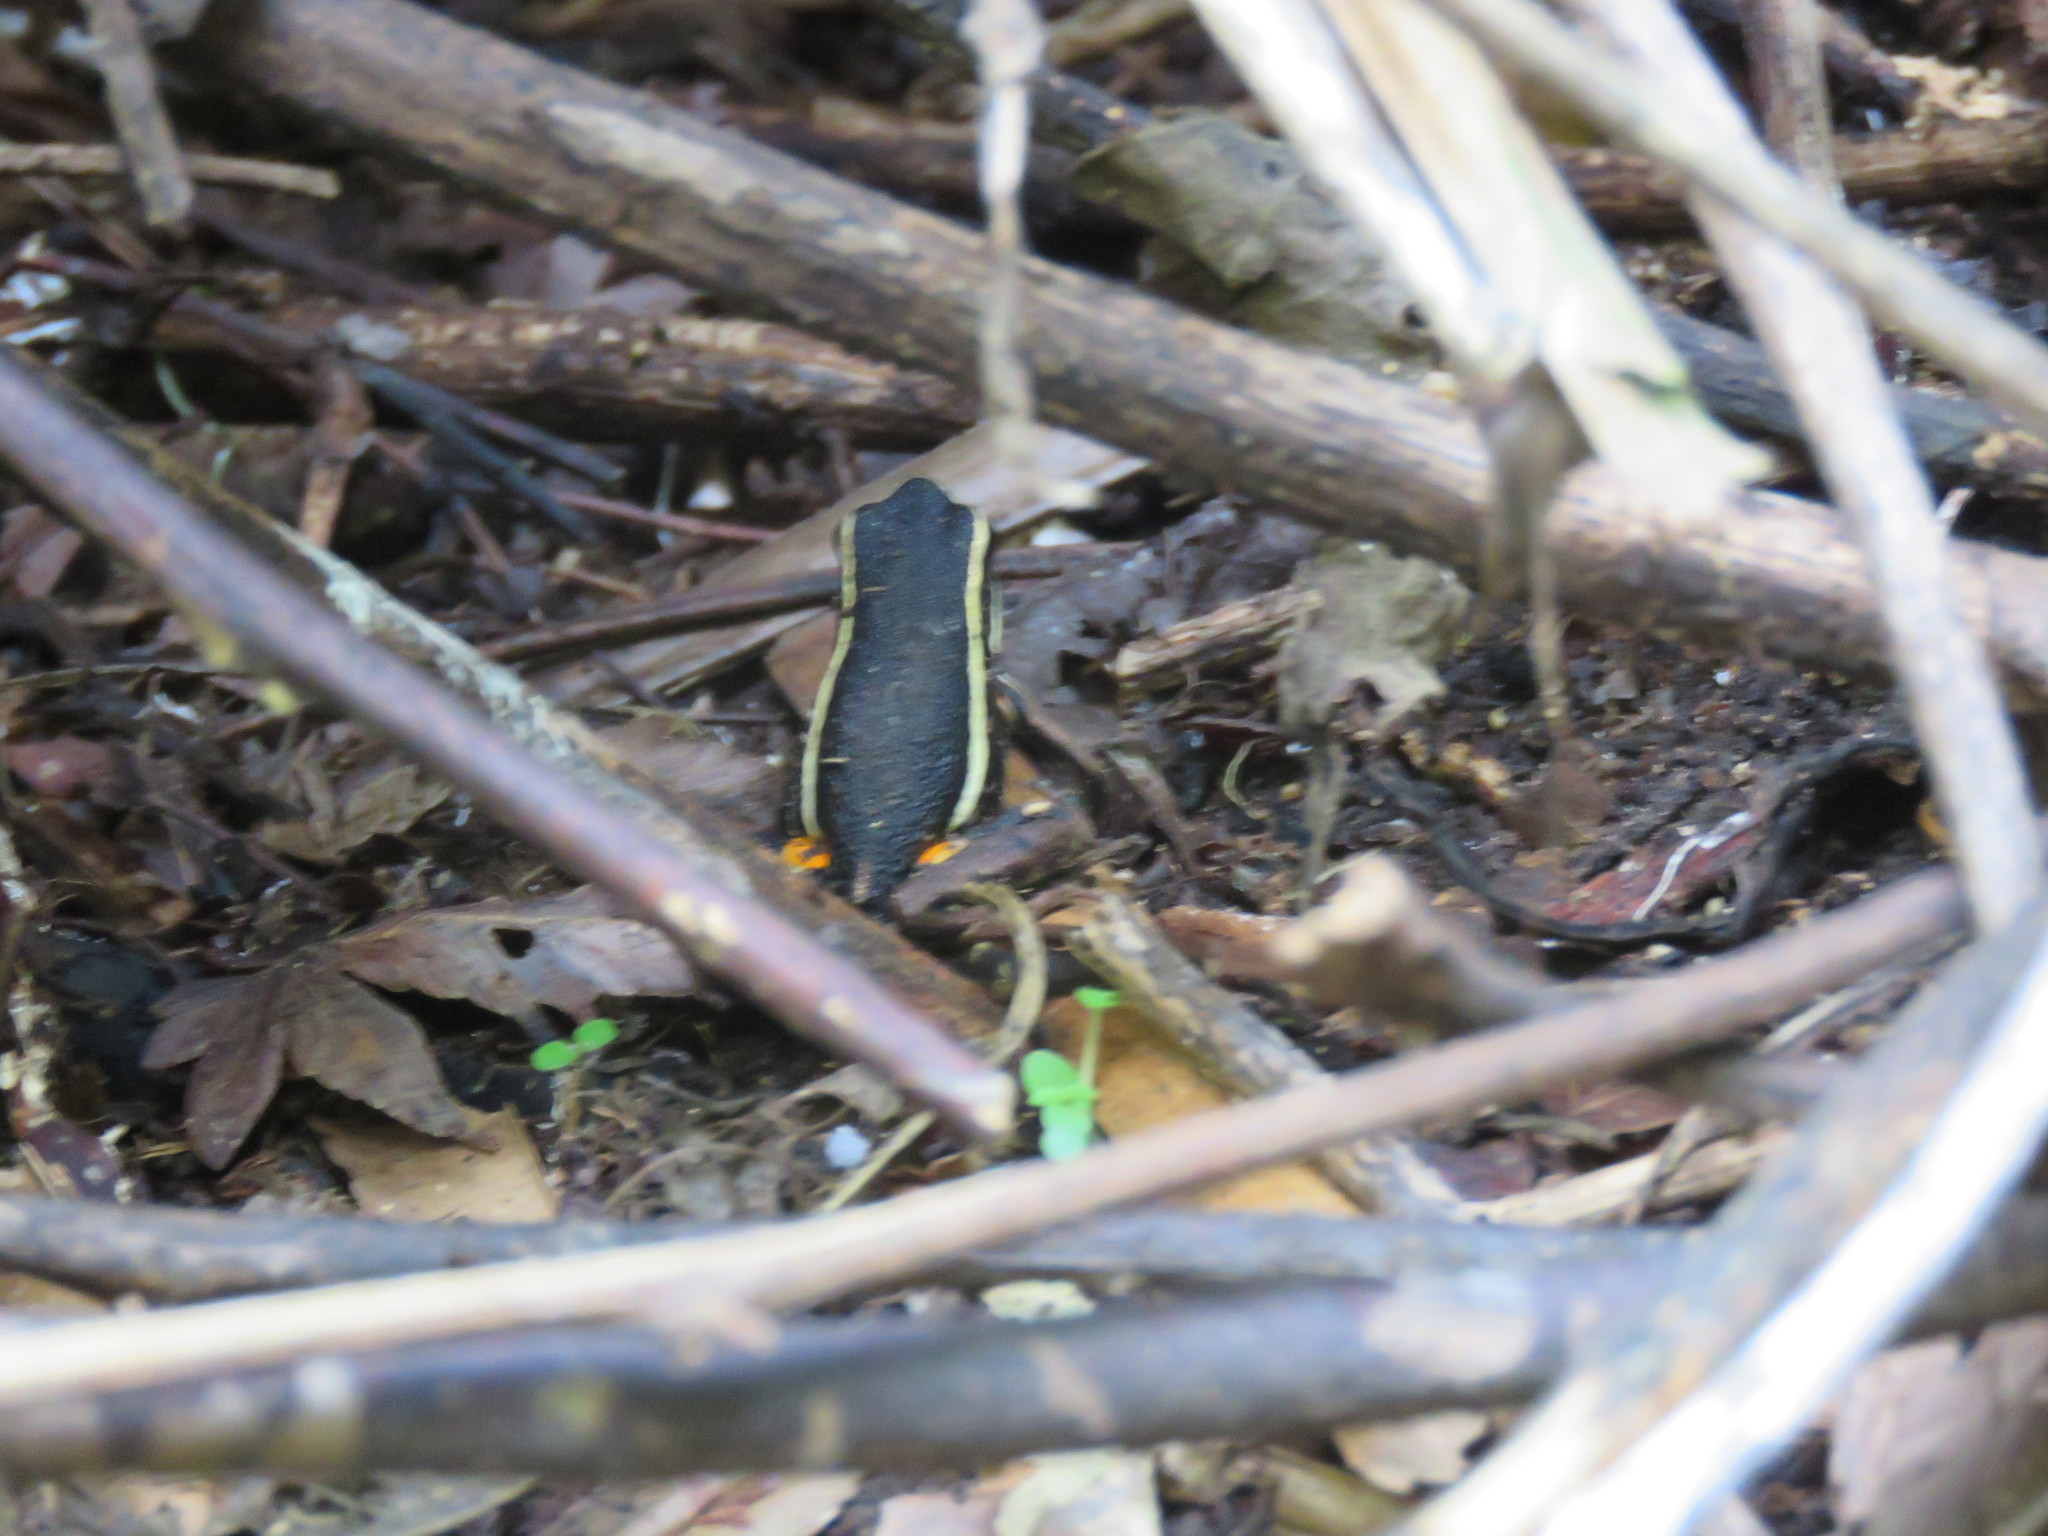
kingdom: Animalia
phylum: Chordata
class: Amphibia
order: Anura
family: Dendrobatidae
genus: Ameerega
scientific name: Ameerega picta
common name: Spot-legged poison frog
